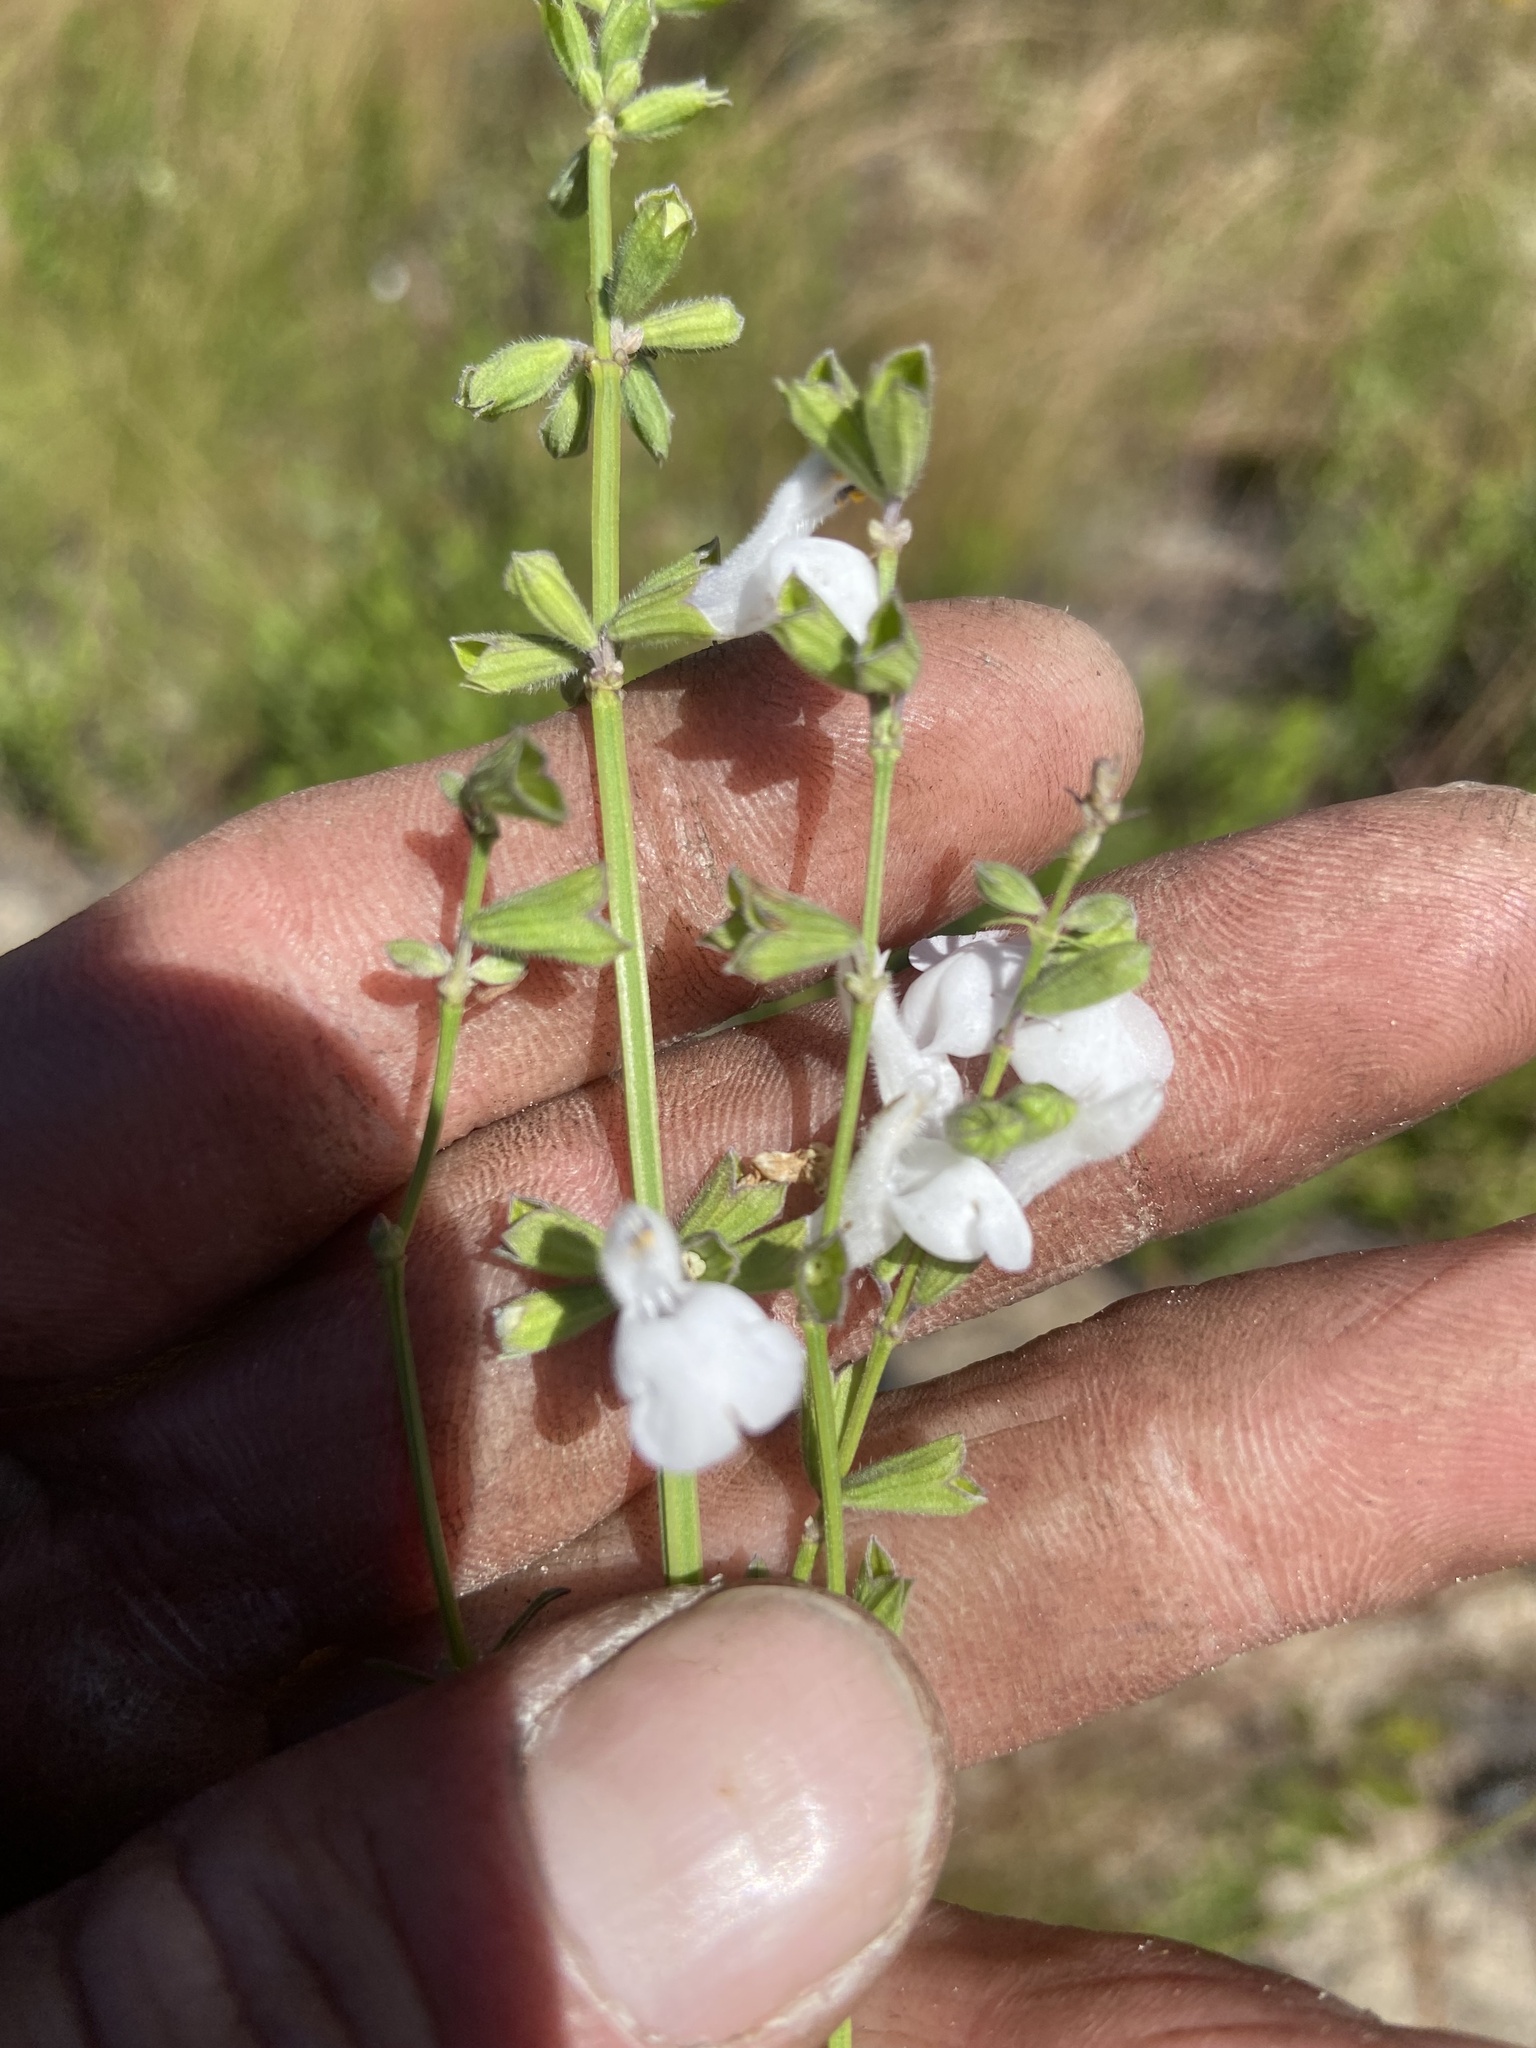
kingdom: Plantae
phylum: Tracheophyta
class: Magnoliopsida
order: Lamiales
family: Lamiaceae
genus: Salvia
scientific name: Salvia azurea
